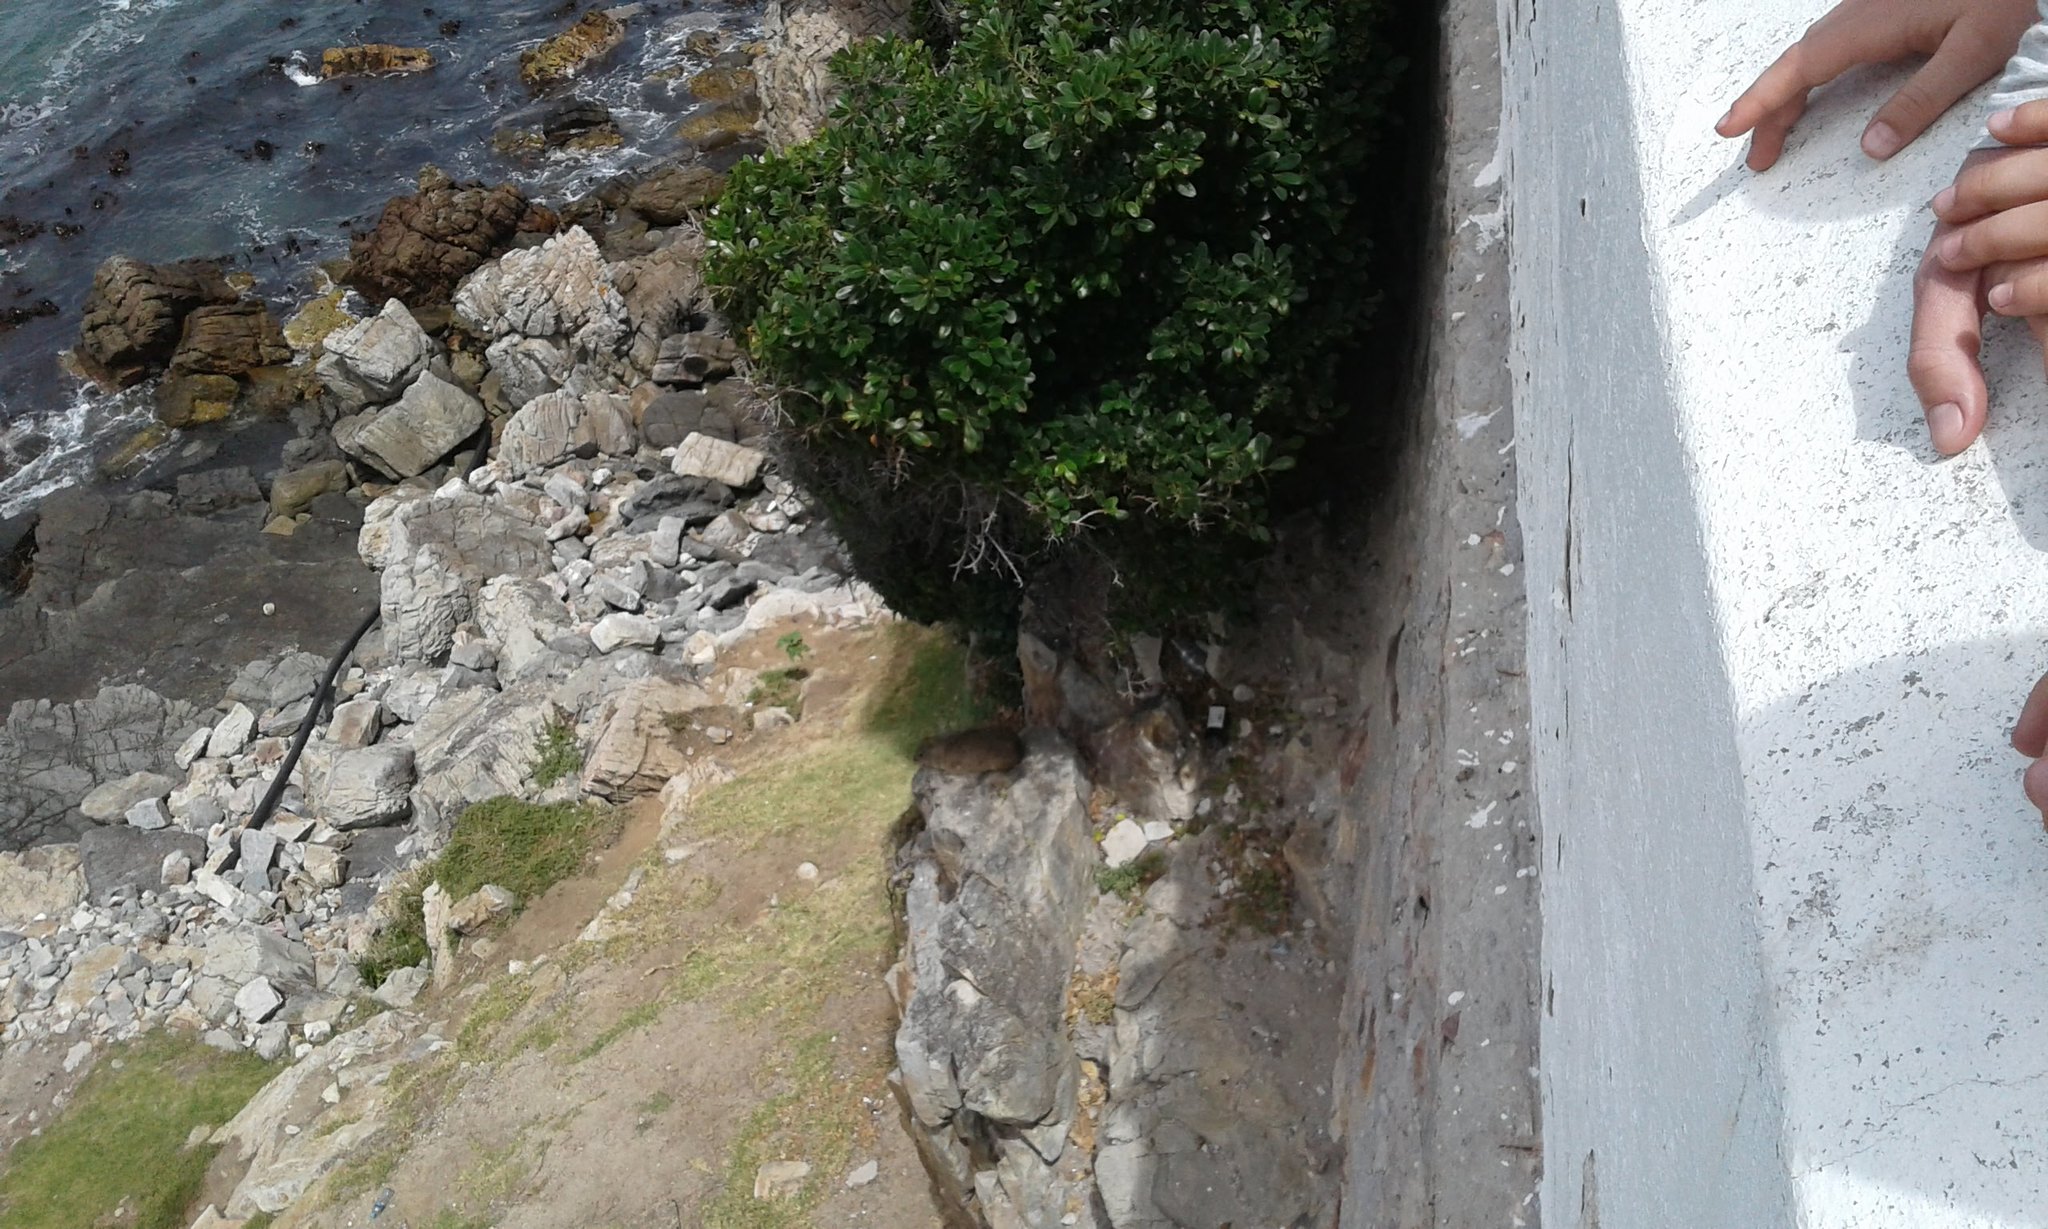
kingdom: Animalia
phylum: Chordata
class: Mammalia
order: Hyracoidea
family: Procaviidae
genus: Procavia
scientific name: Procavia capensis
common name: Rock hyrax
